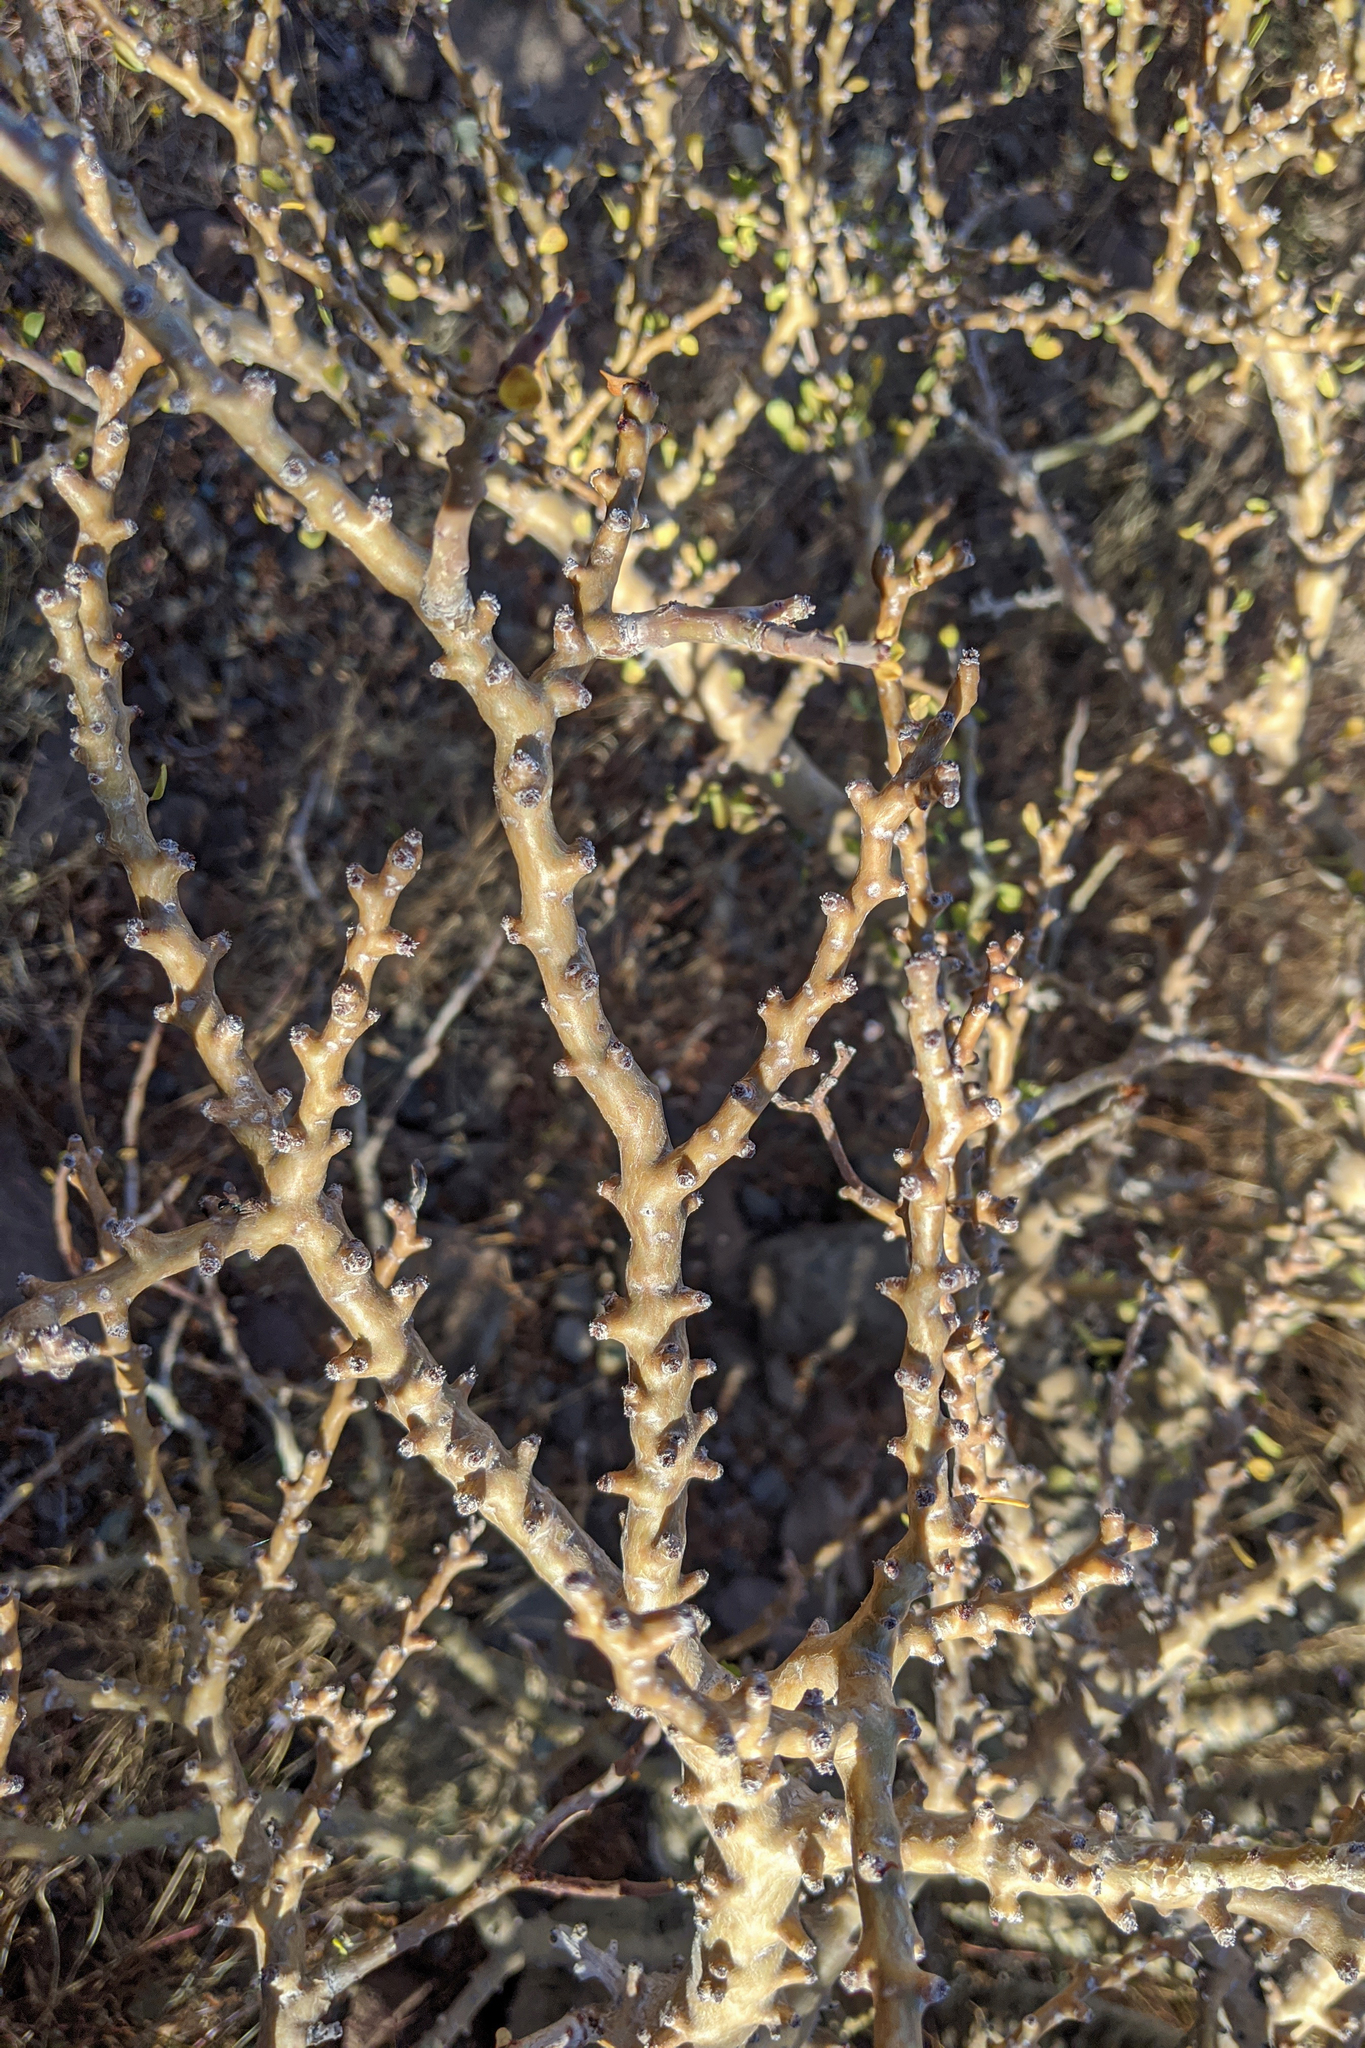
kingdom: Plantae
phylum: Tracheophyta
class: Magnoliopsida
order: Malpighiales
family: Euphorbiaceae
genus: Jatropha
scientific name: Jatropha cuneata
